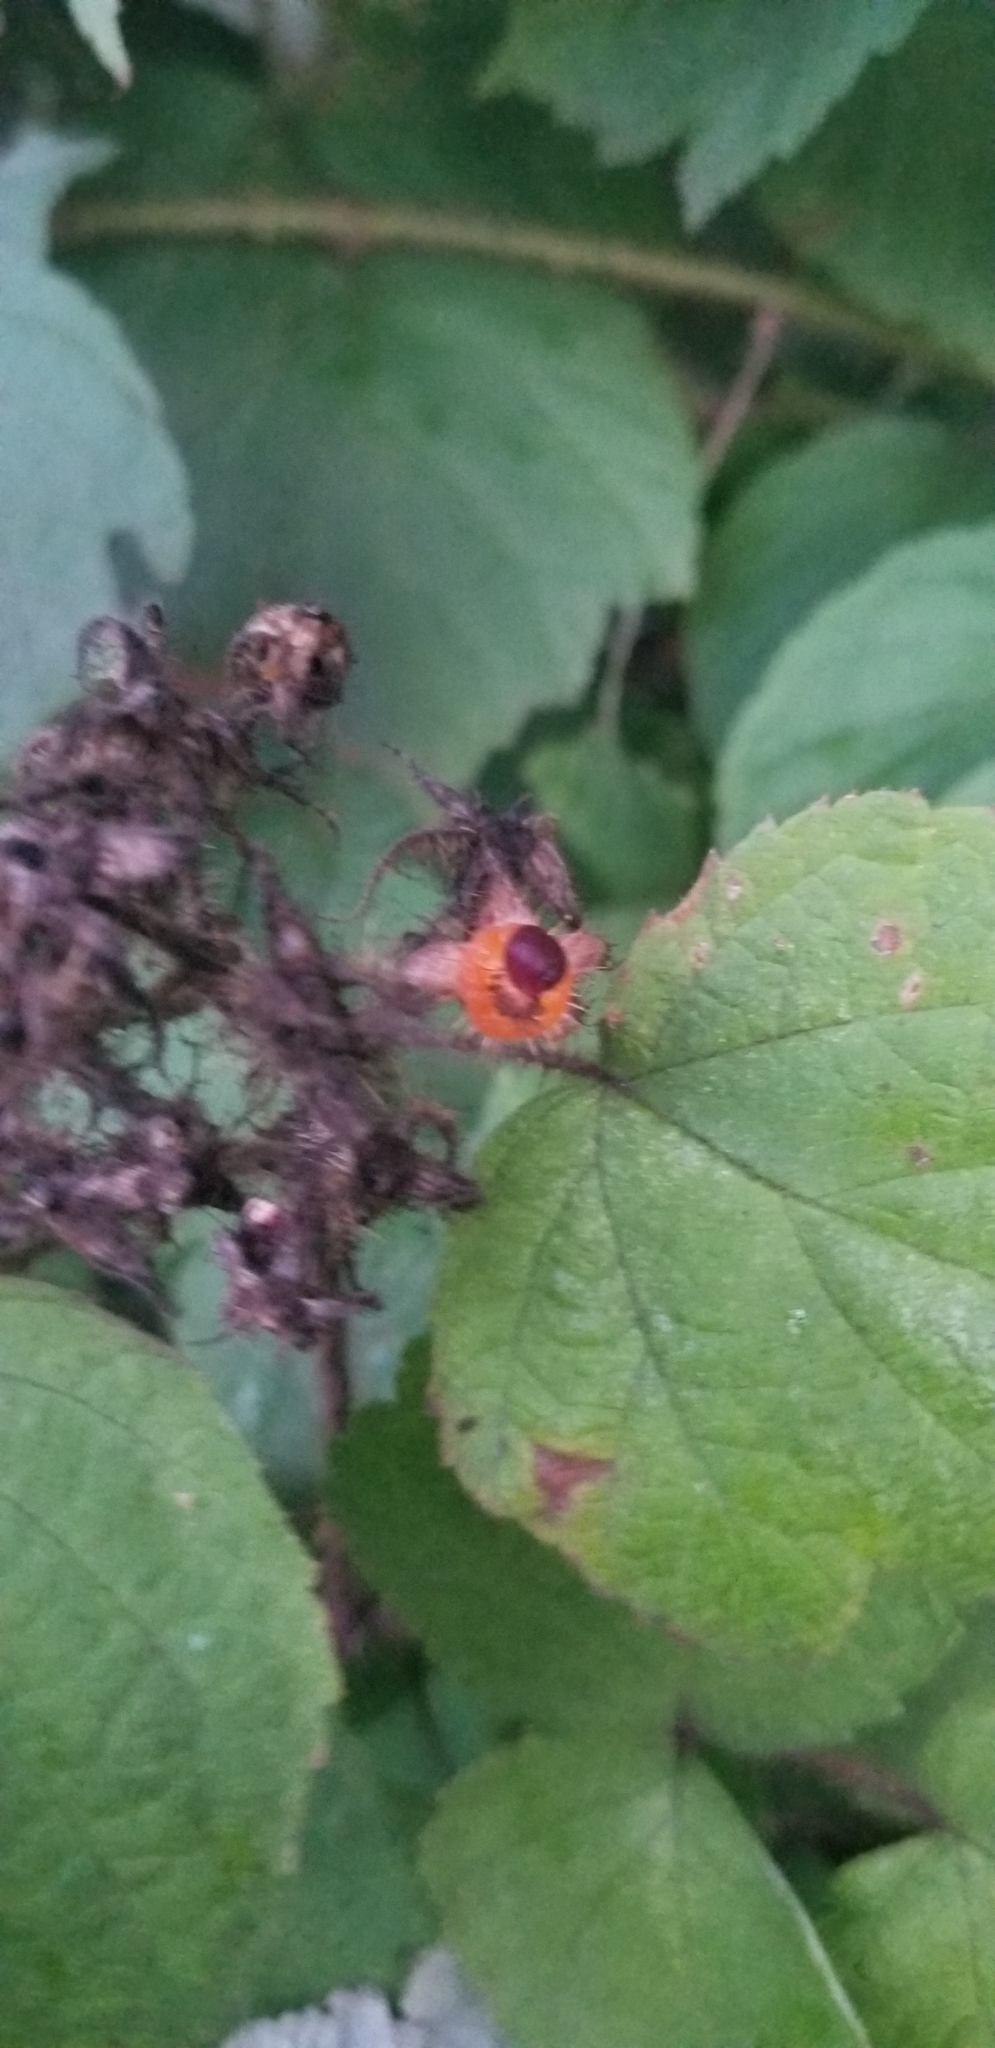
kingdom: Plantae
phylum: Tracheophyta
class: Magnoliopsida
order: Rosales
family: Rosaceae
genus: Rubus
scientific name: Rubus phoenicolasius
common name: Japanese wineberry
